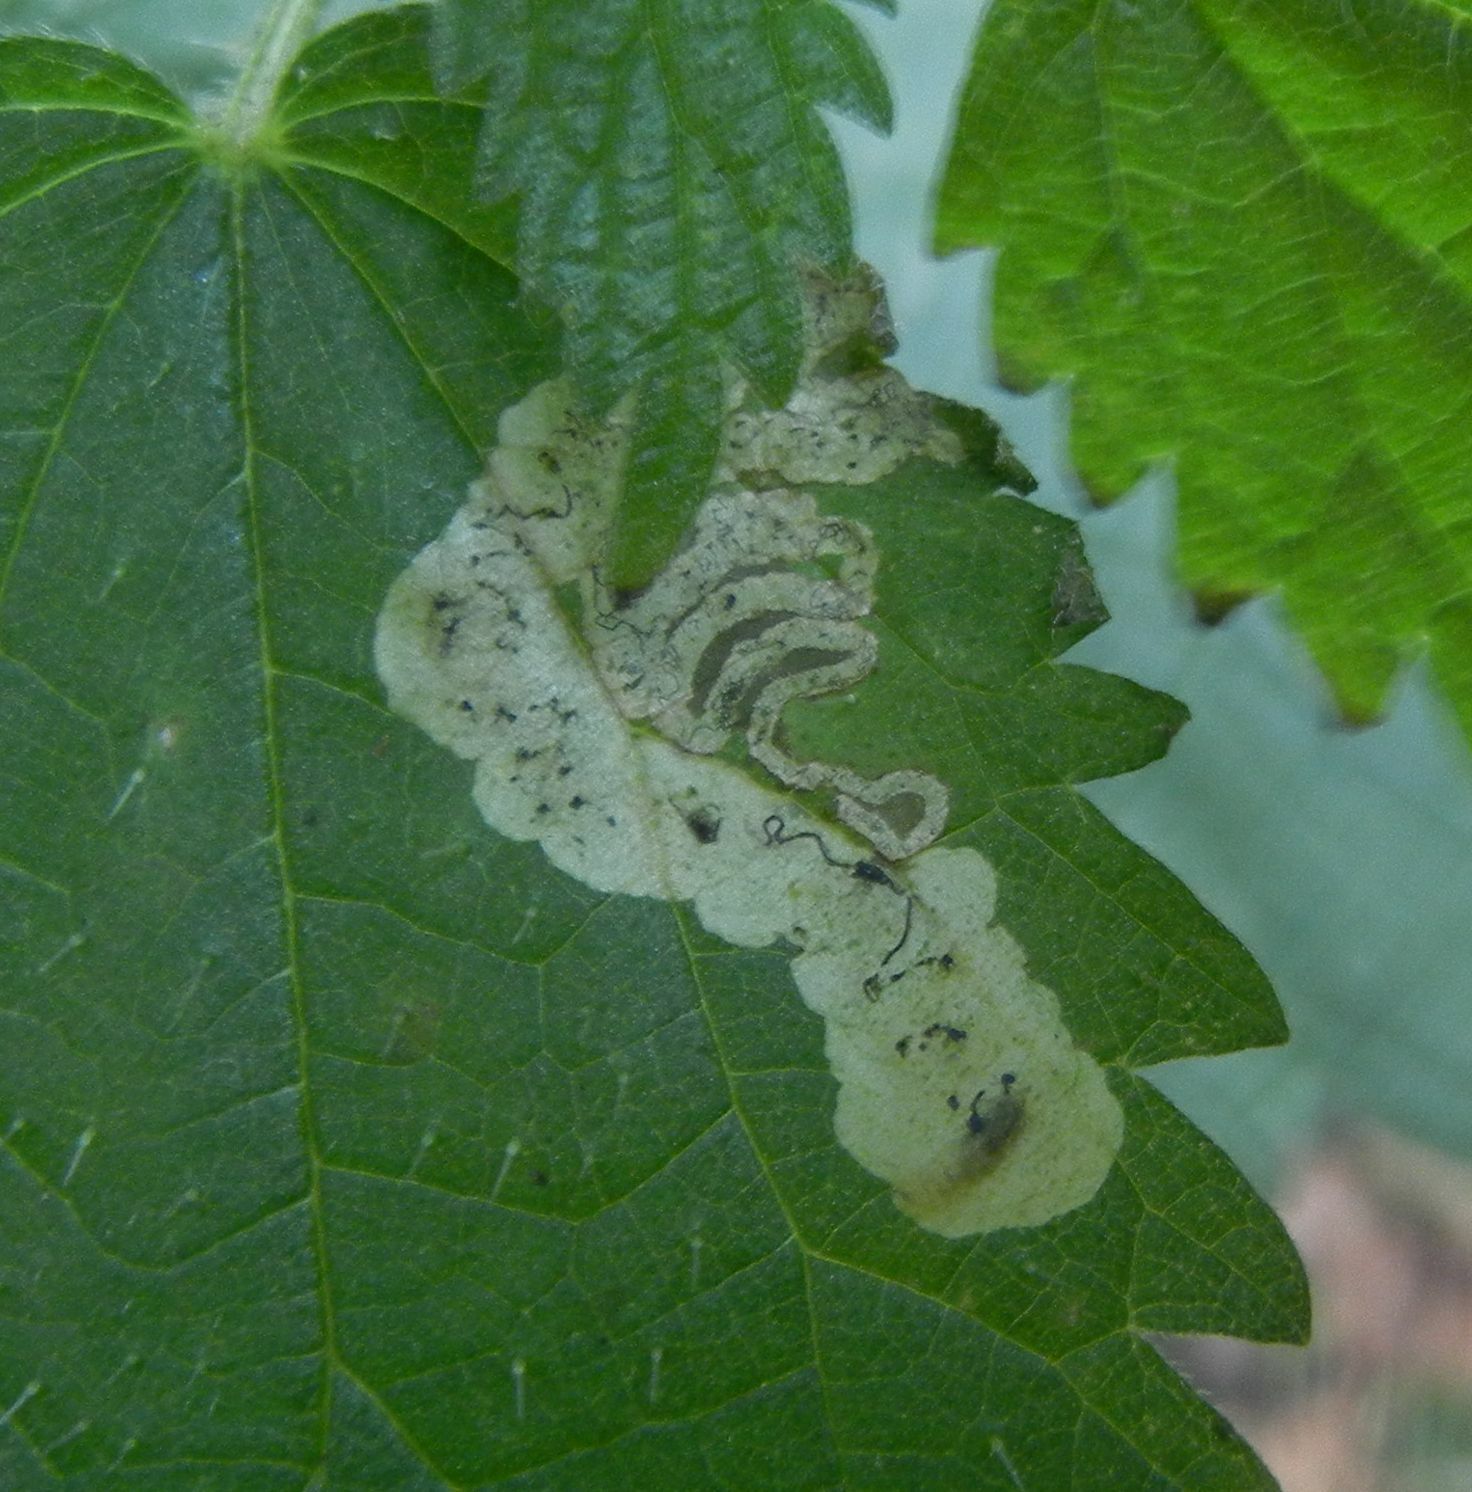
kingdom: Animalia
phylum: Arthropoda
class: Insecta
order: Diptera
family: Agromyzidae
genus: Agromyza
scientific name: Agromyza anthracina
